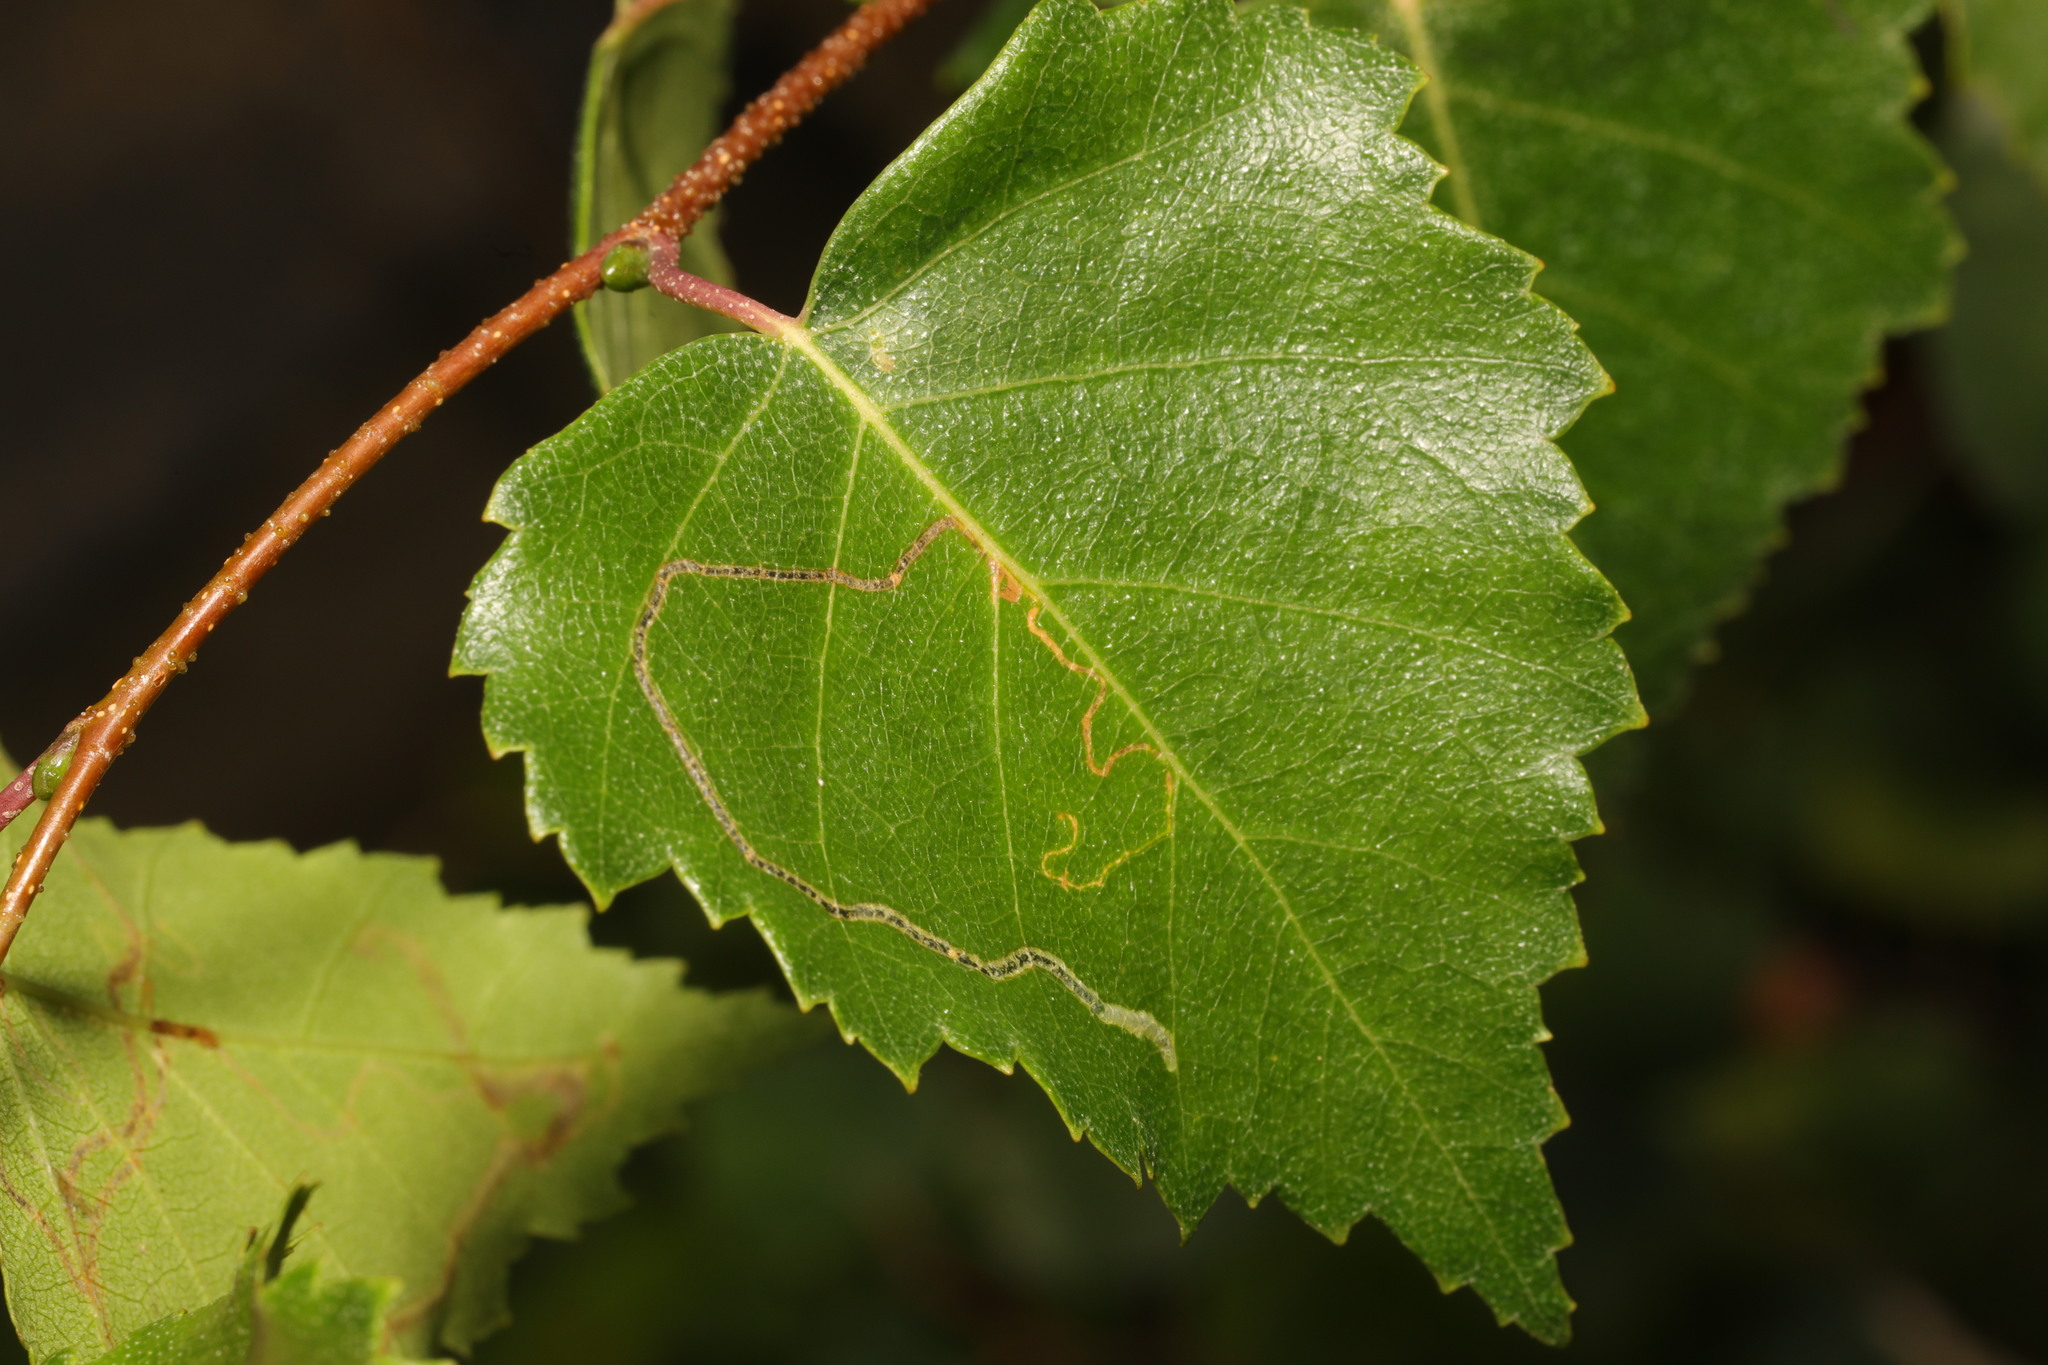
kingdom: Animalia
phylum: Arthropoda
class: Insecta
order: Lepidoptera
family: Lyonetiidae
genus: Lyonetia
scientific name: Lyonetia clerkella
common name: Apple leaf miner
